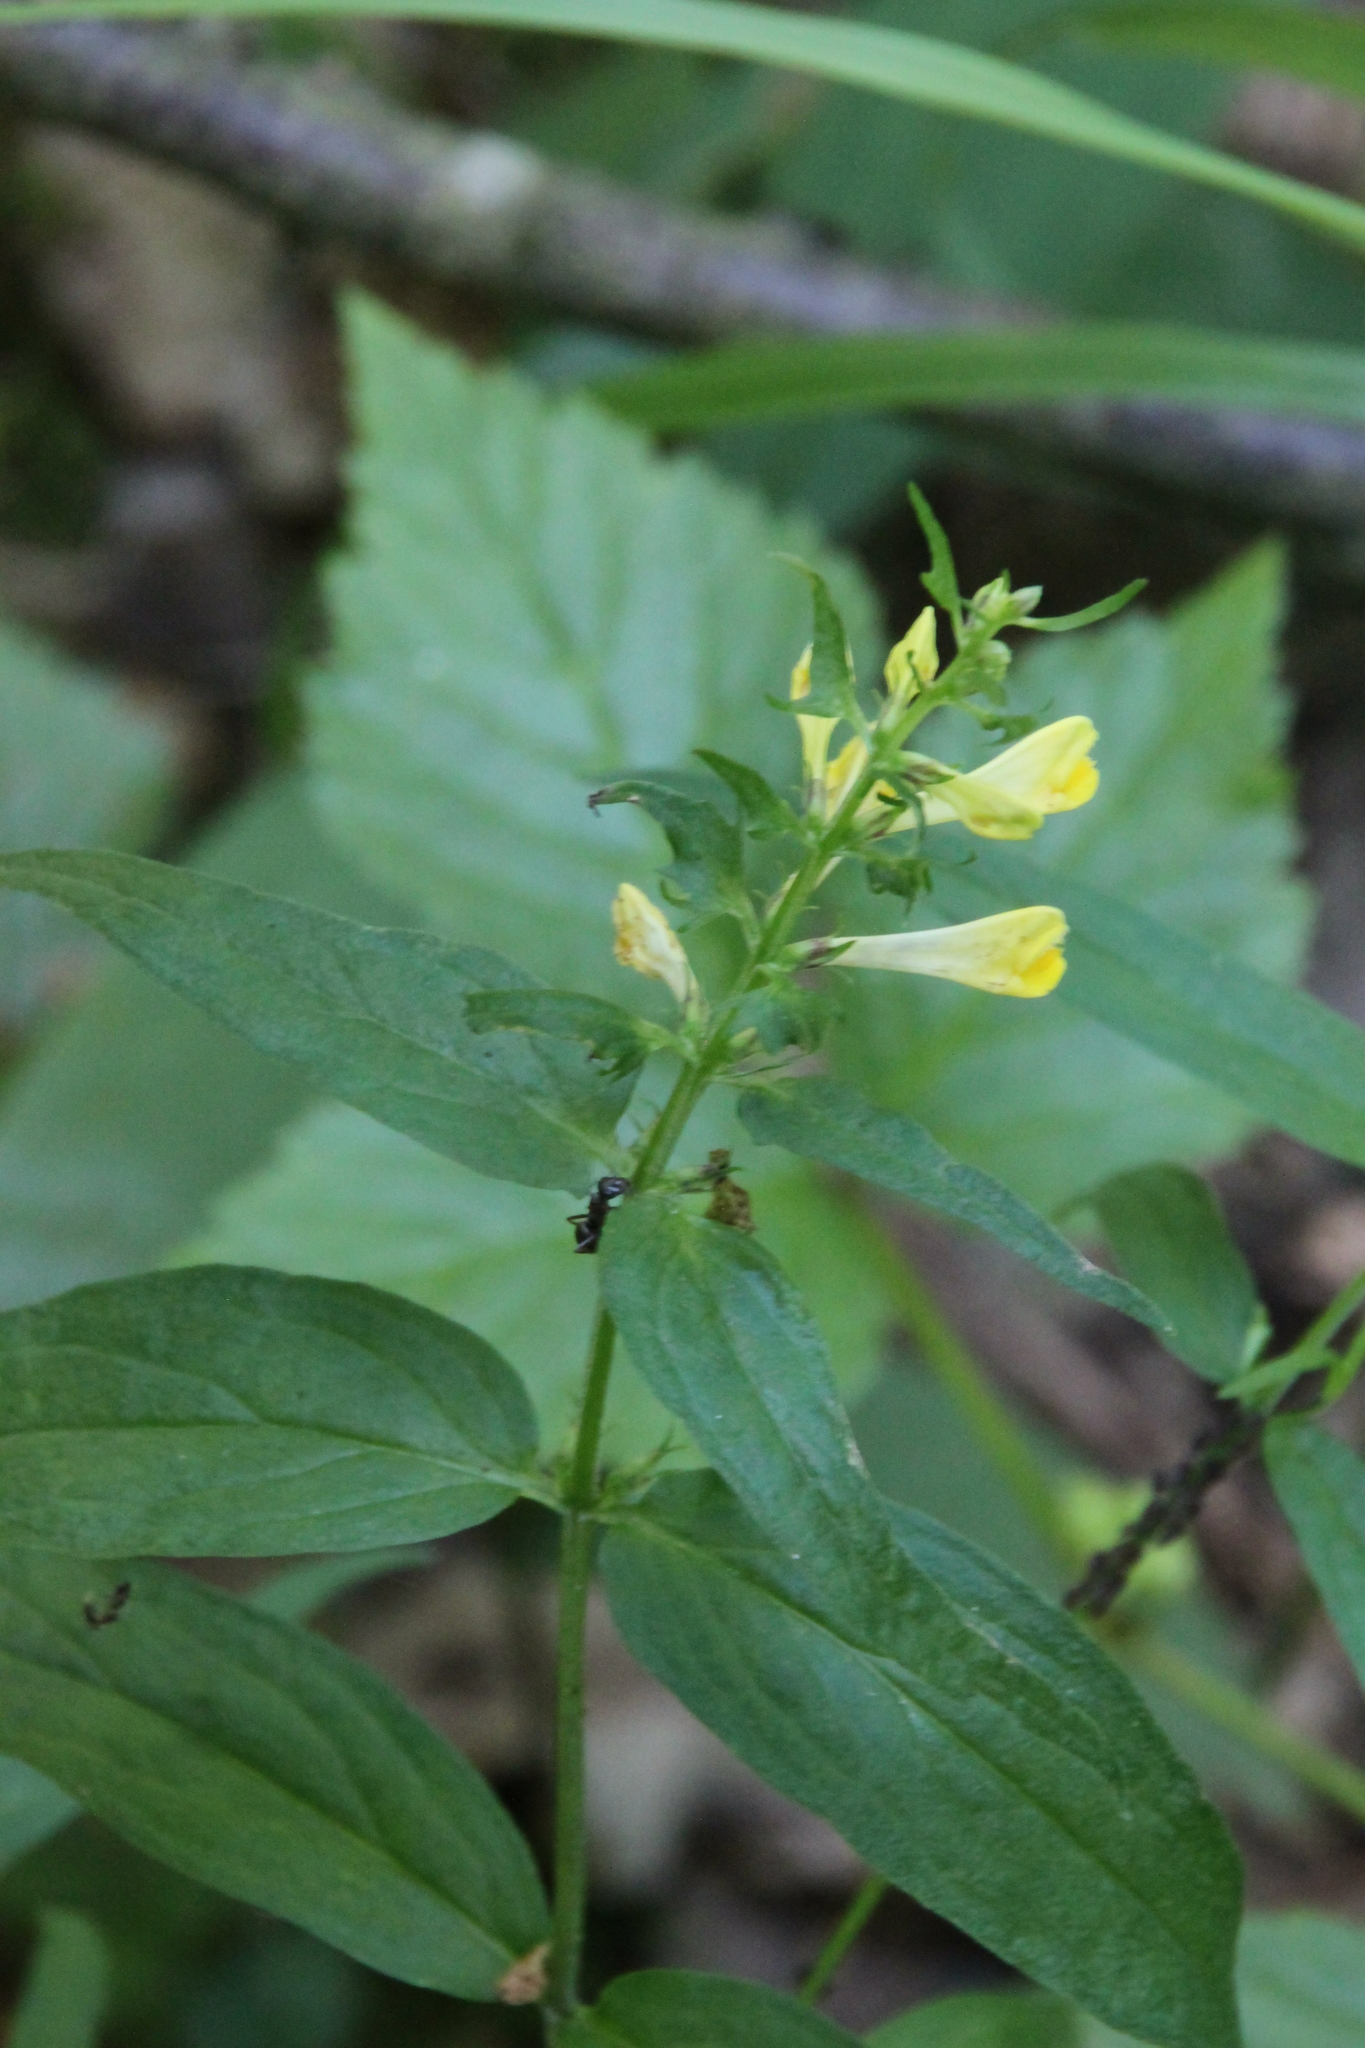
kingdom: Plantae
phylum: Tracheophyta
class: Magnoliopsida
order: Lamiales
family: Orobanchaceae
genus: Melampyrum
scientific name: Melampyrum pratense
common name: Common cow-wheat
